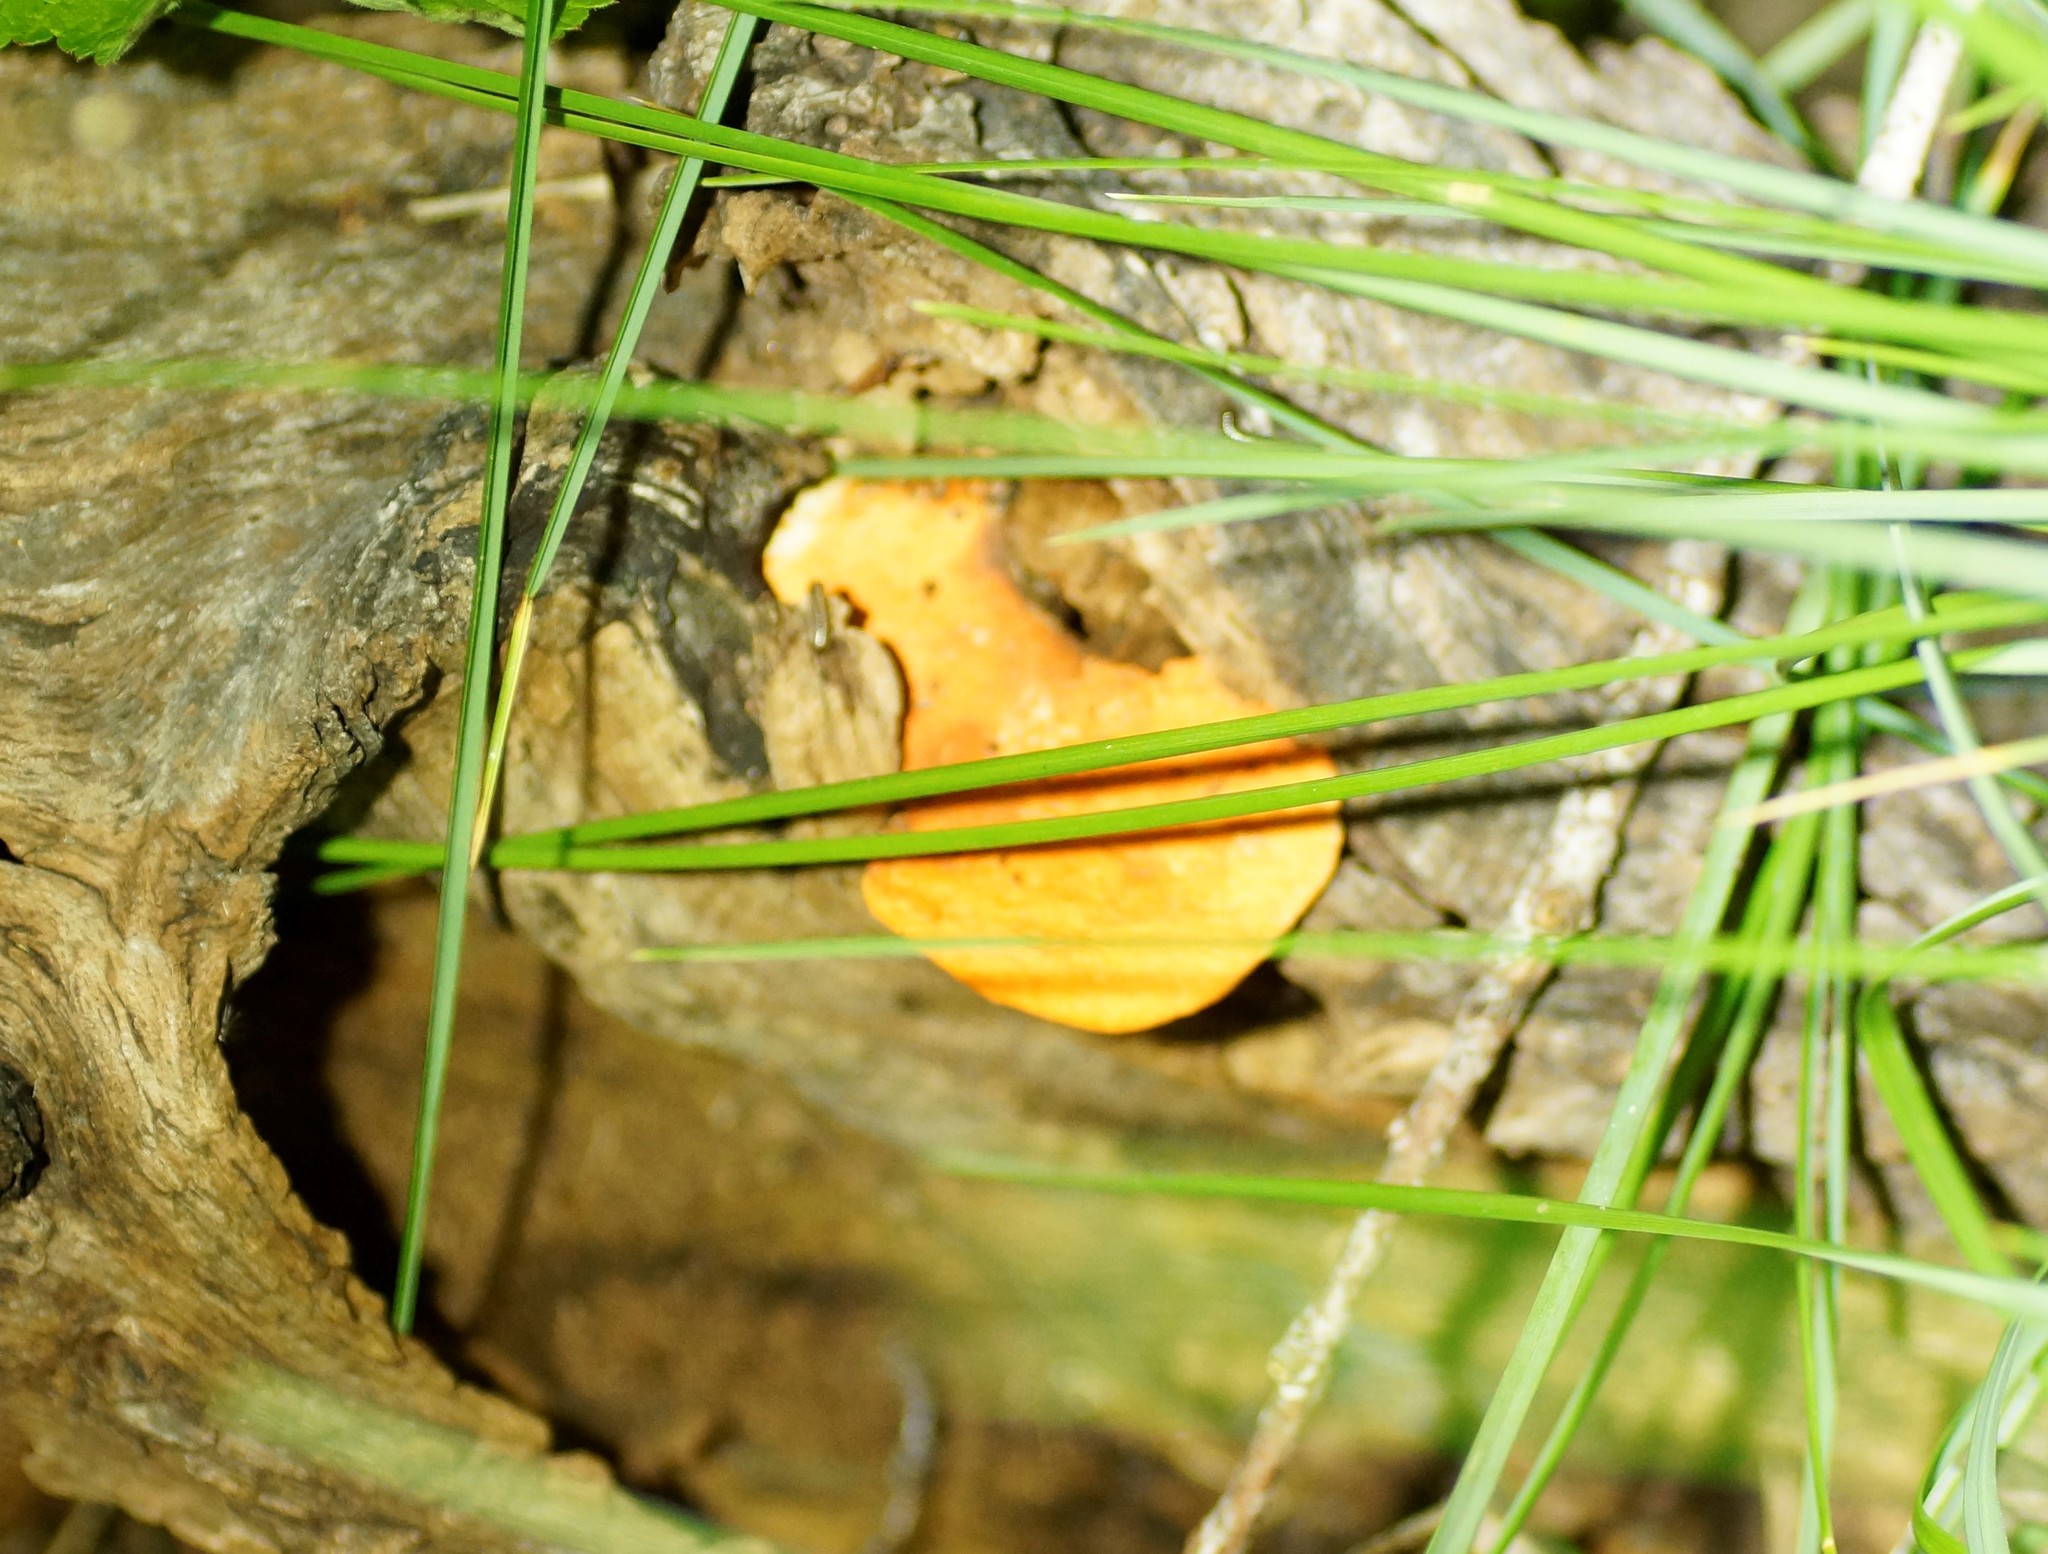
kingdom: Fungi
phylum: Basidiomycota
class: Agaricomycetes
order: Polyporales
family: Polyporaceae
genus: Trametes
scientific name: Trametes coccinea
